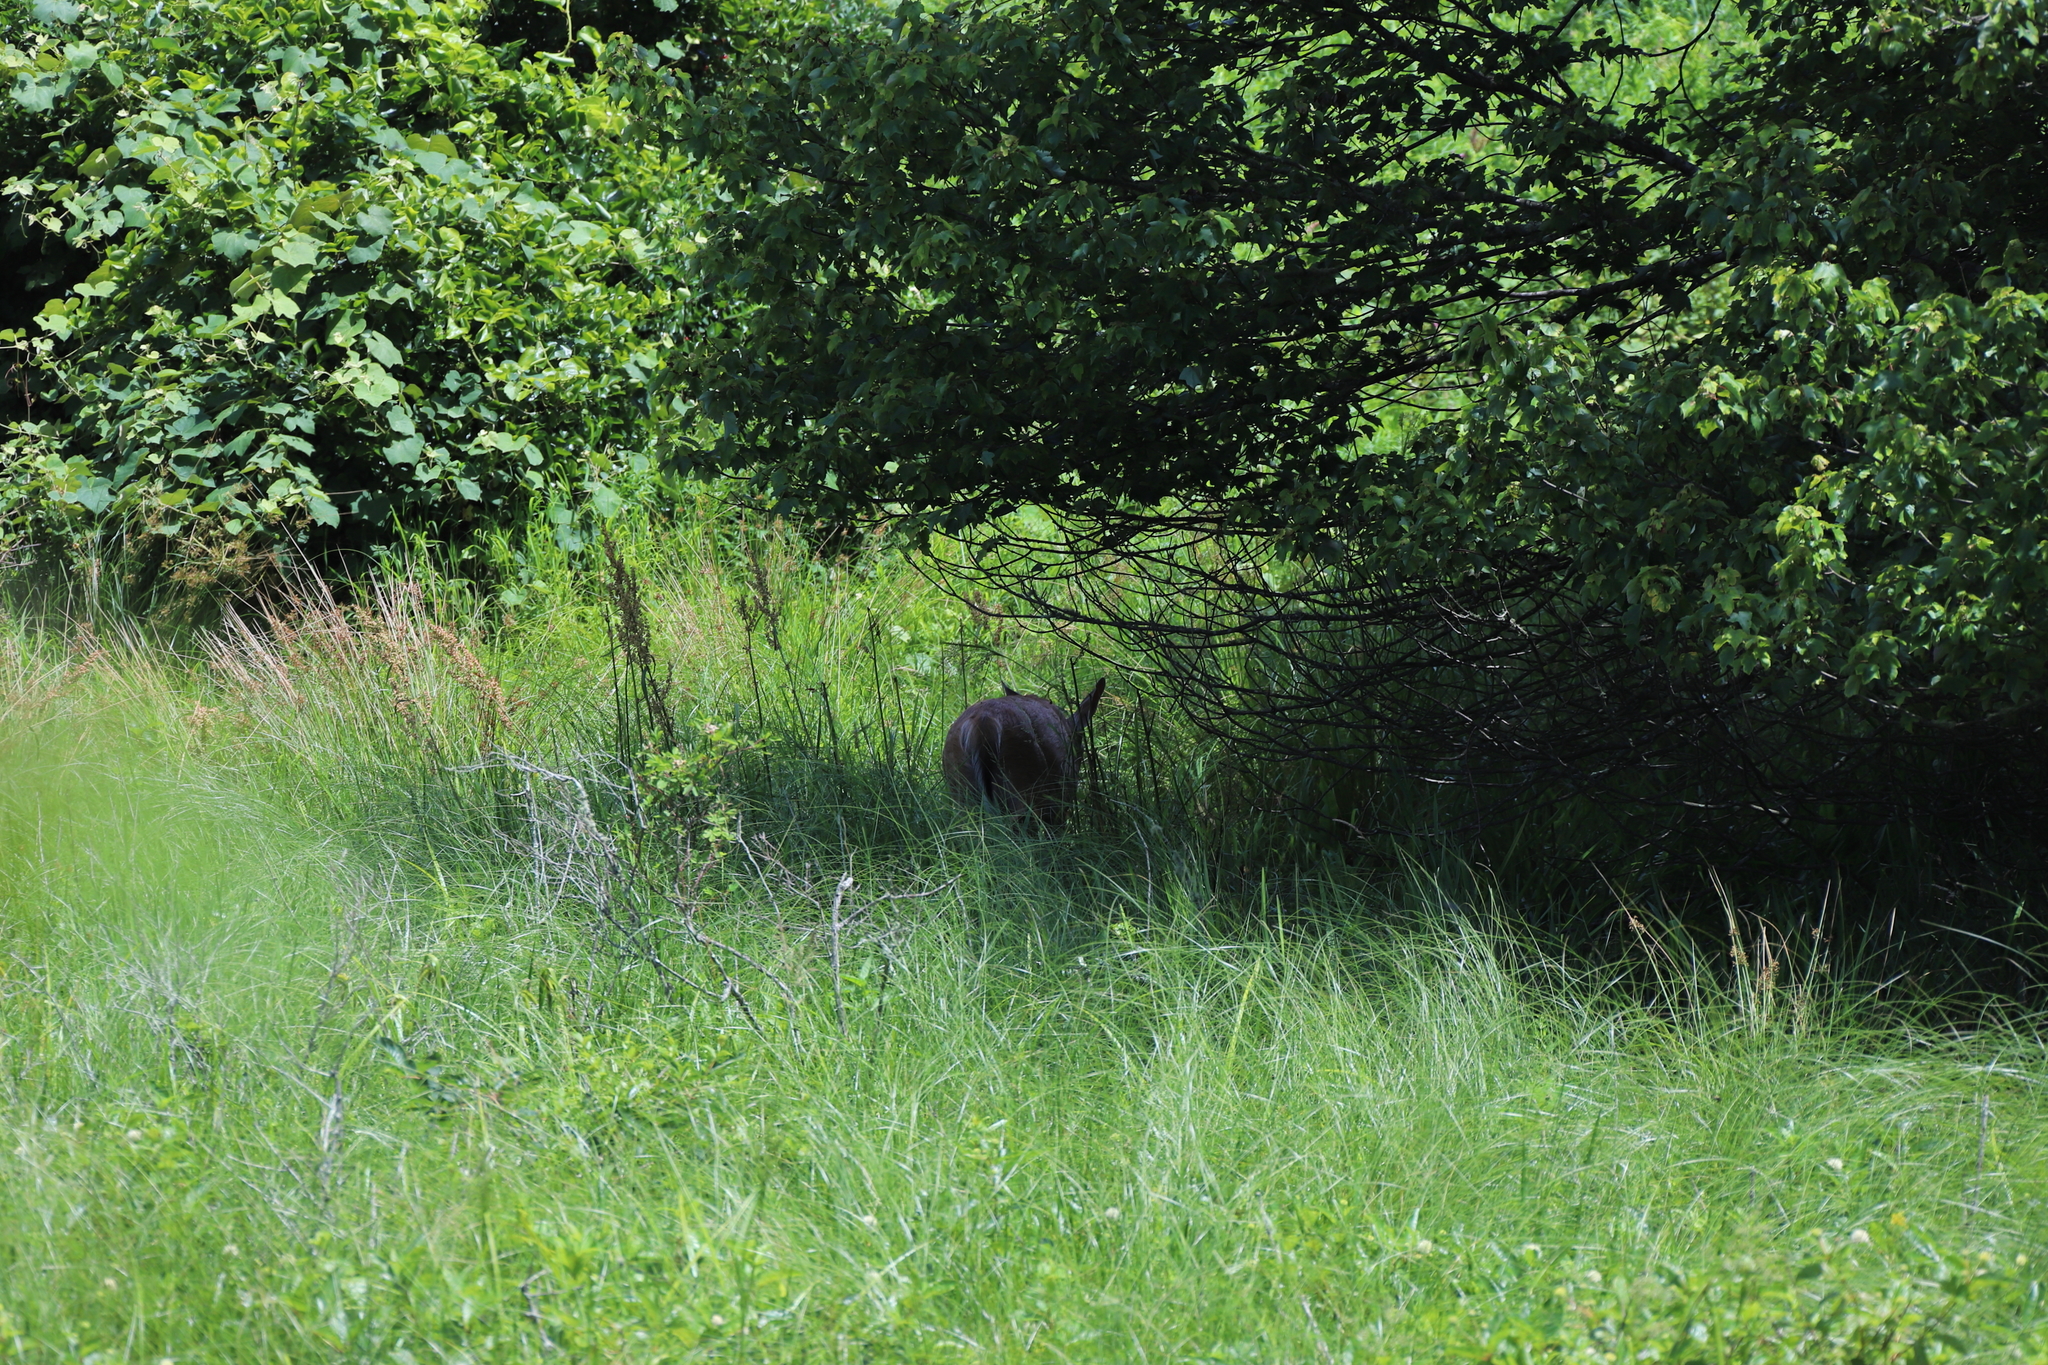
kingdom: Animalia
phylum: Chordata
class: Mammalia
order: Artiodactyla
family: Cervidae
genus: Odocoileus
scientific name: Odocoileus virginianus
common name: White-tailed deer
